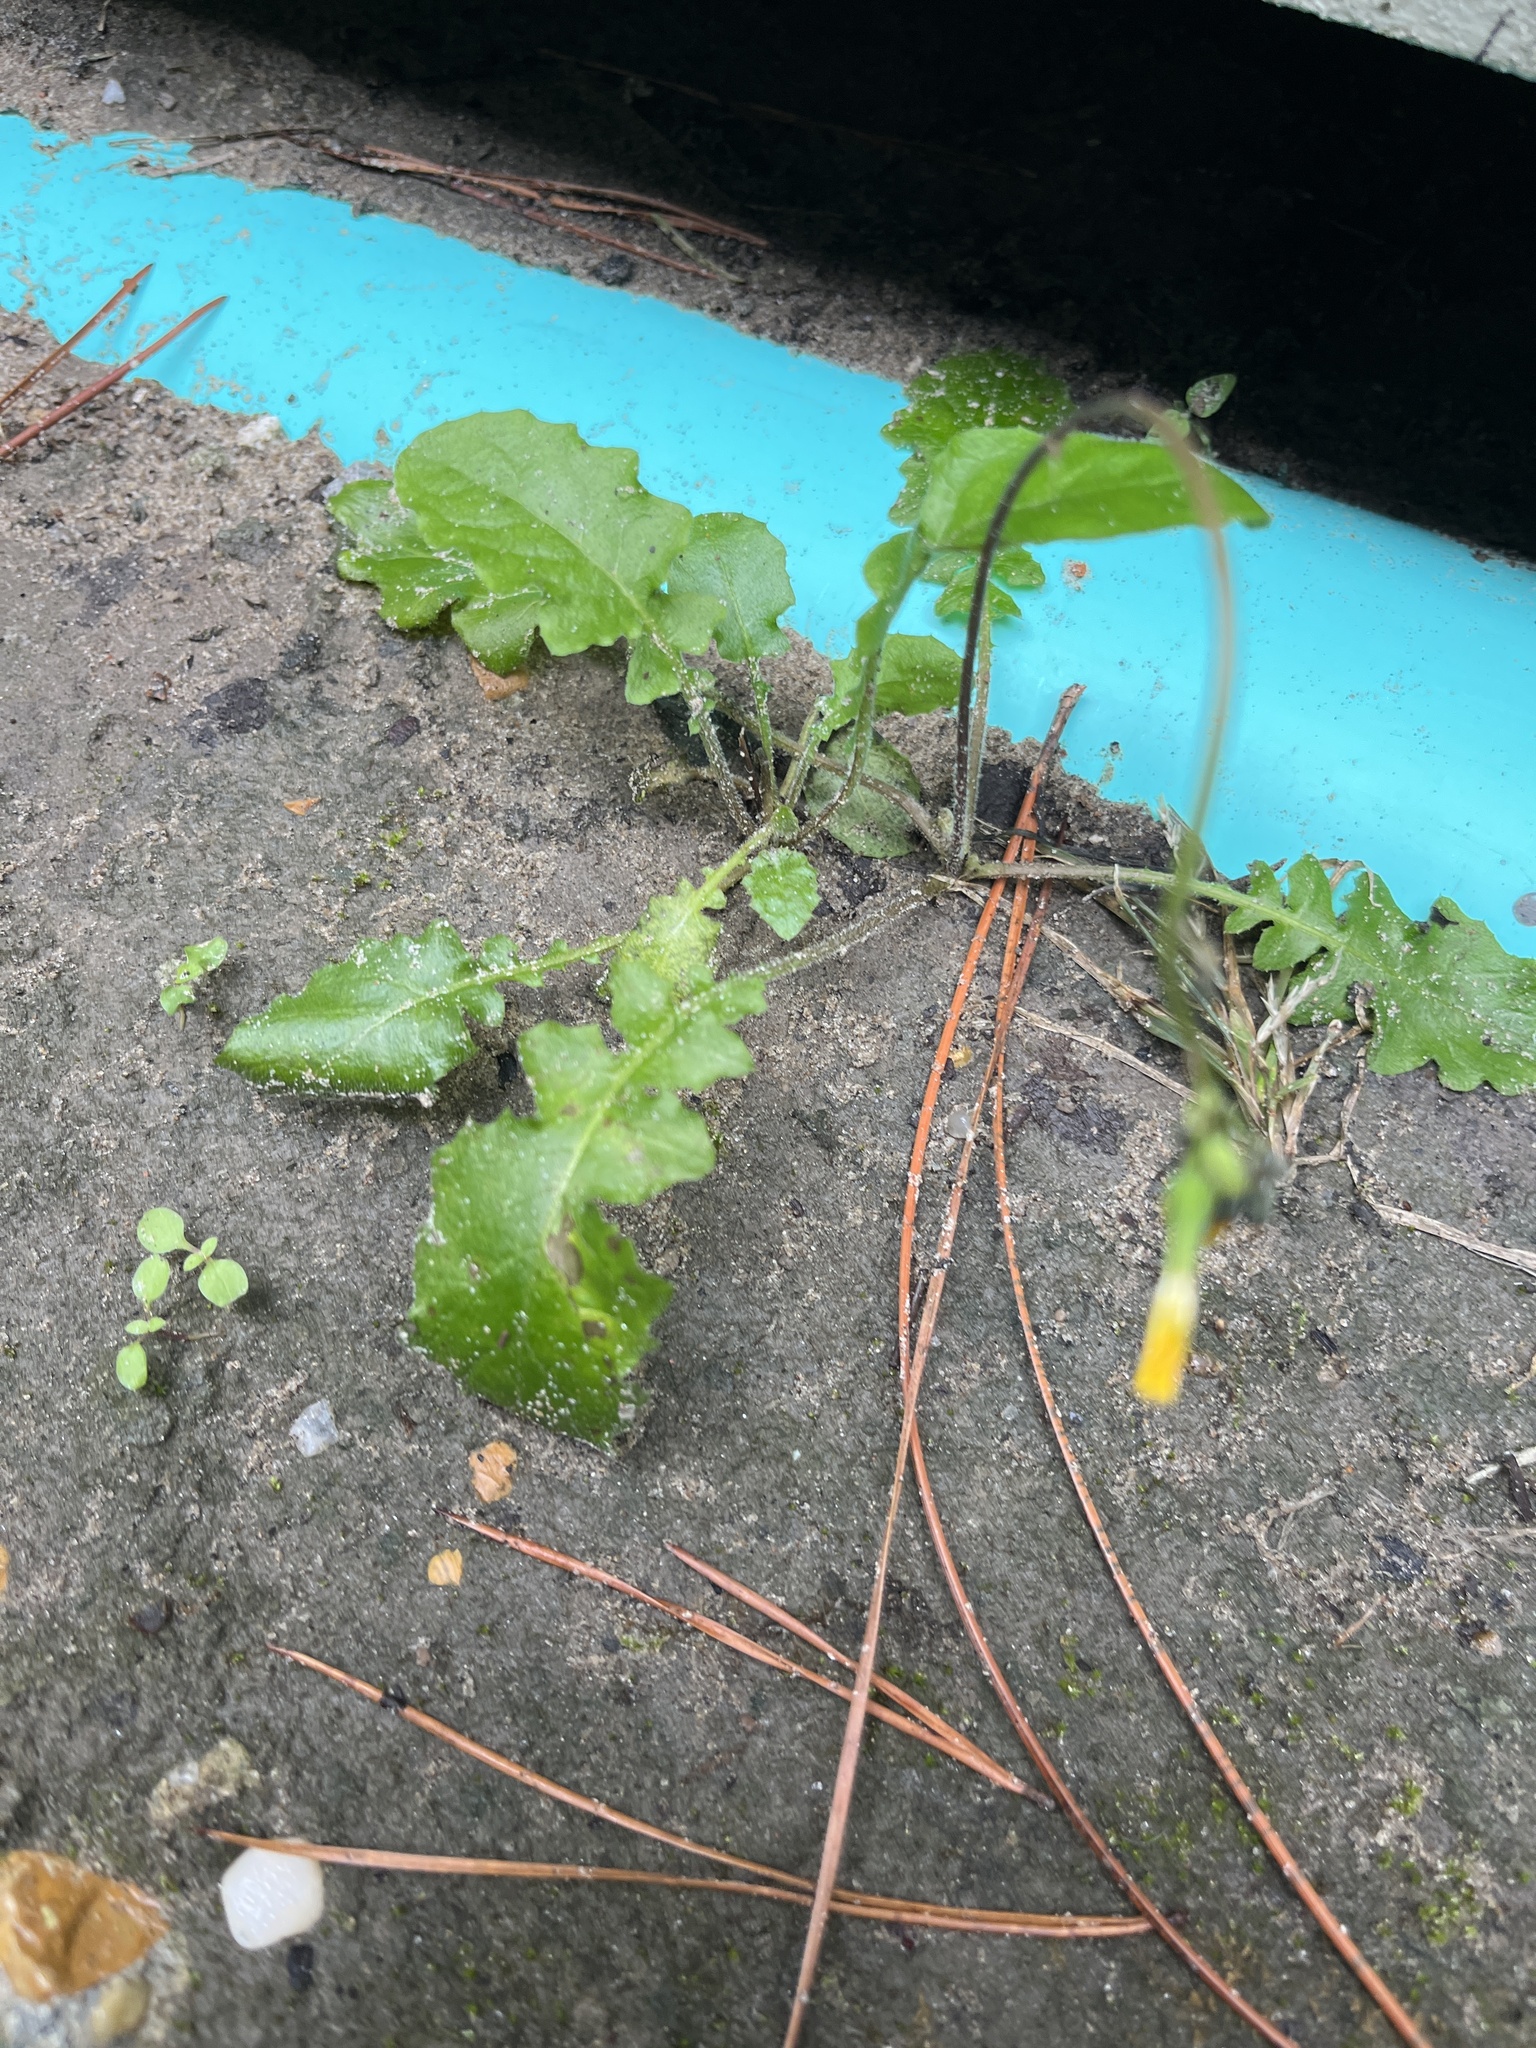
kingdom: Plantae
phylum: Tracheophyta
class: Magnoliopsida
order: Asterales
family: Asteraceae
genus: Youngia
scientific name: Youngia japonica
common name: Oriental false hawksbeard
